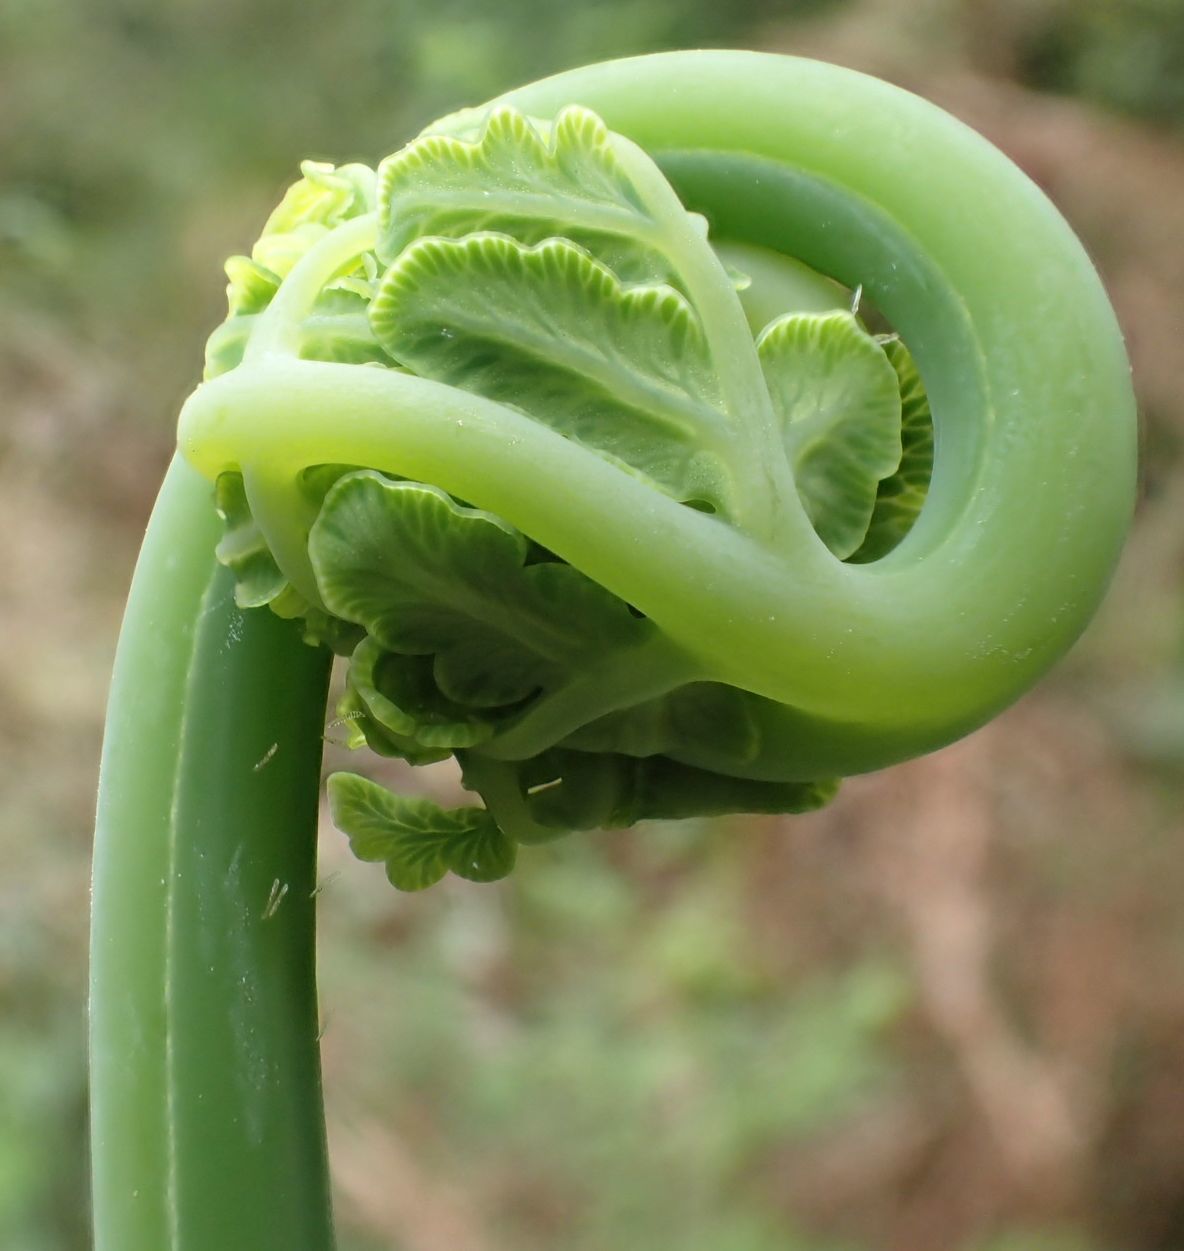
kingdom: Plantae
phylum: Tracheophyta
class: Polypodiopsida
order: Polypodiales
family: Dennstaedtiaceae
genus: Histiopteris
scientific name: Histiopteris incisa
